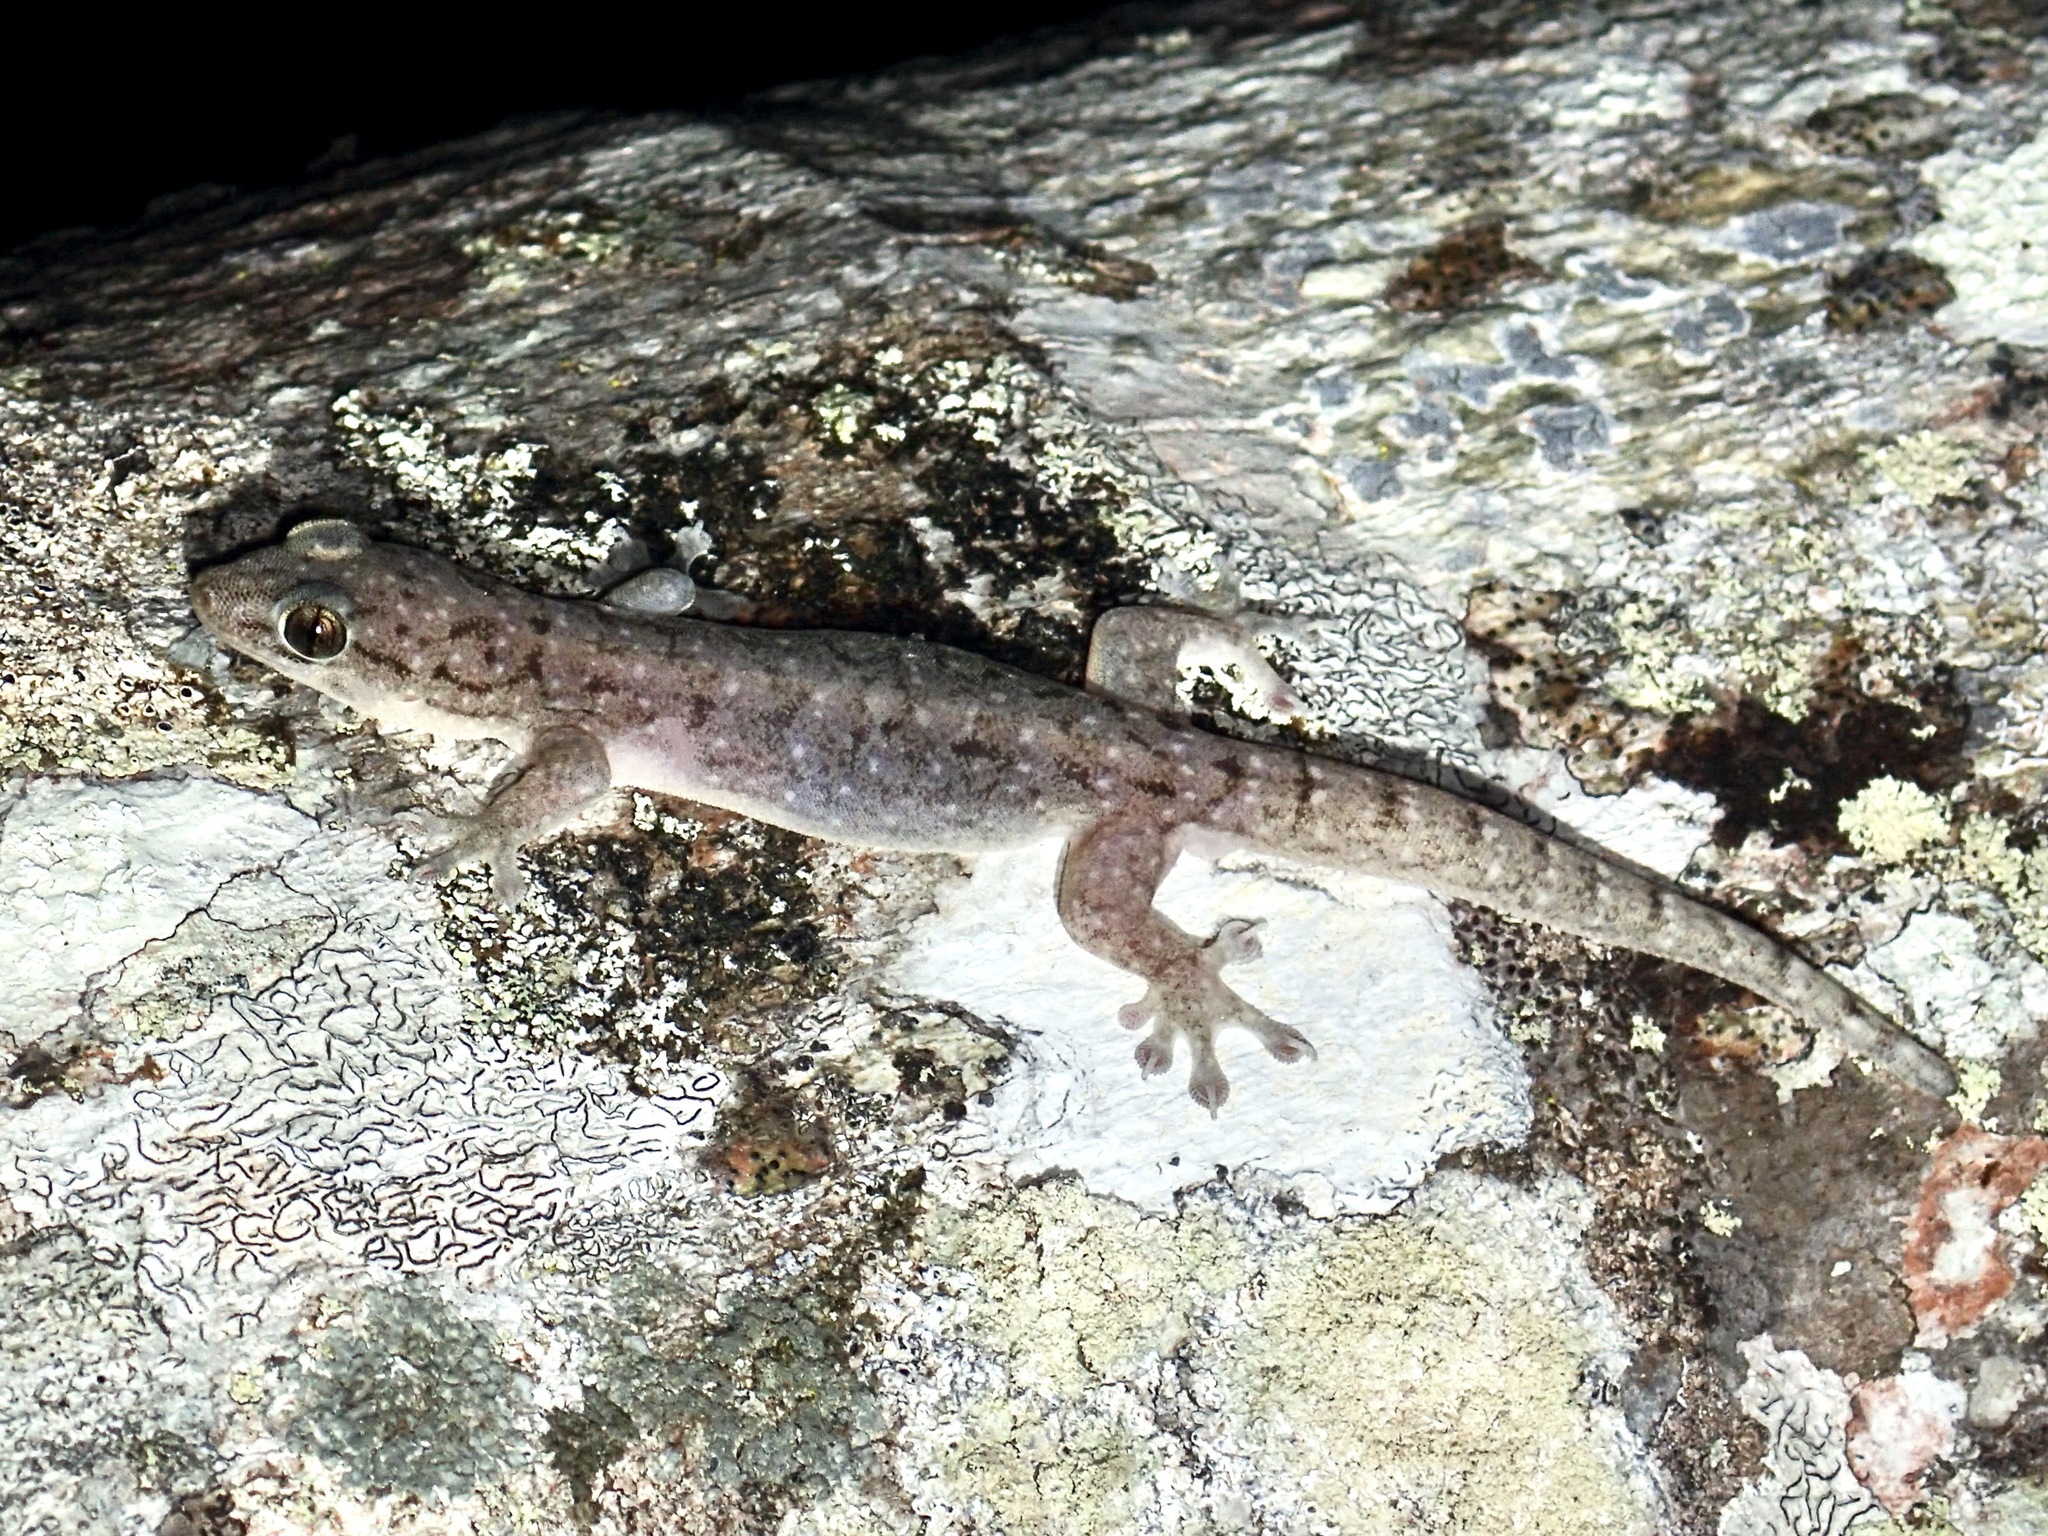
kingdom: Animalia
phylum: Chordata
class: Squamata
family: Gekkonidae
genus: Gehyra
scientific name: Gehyra dubia
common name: Dubious dtella
